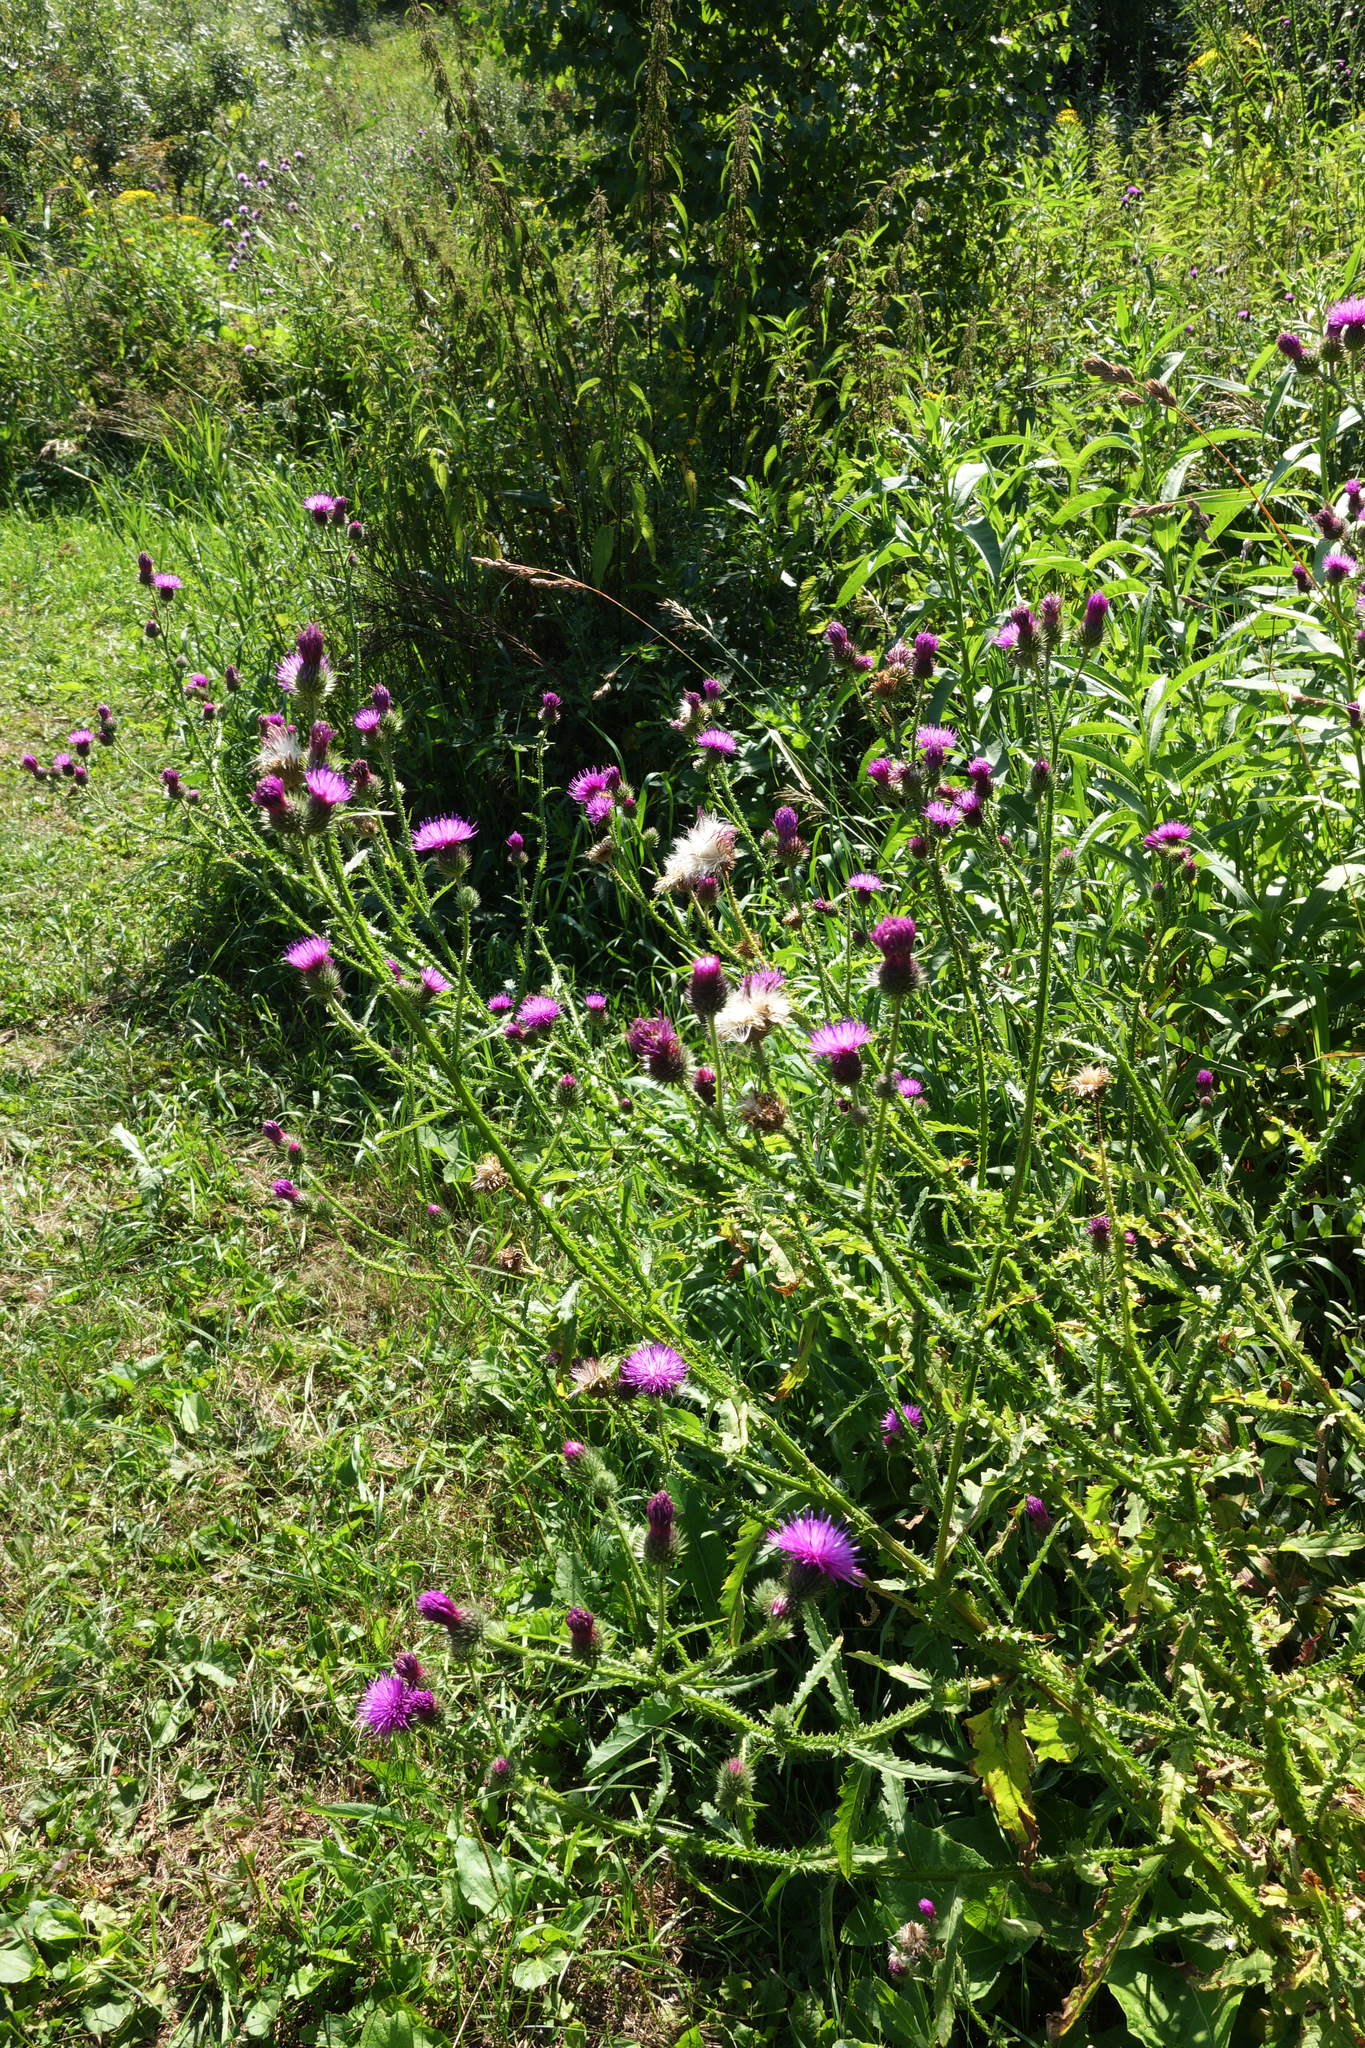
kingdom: Plantae
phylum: Tracheophyta
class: Magnoliopsida
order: Asterales
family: Asteraceae
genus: Carduus
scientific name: Carduus crispus
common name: Welted thistle
